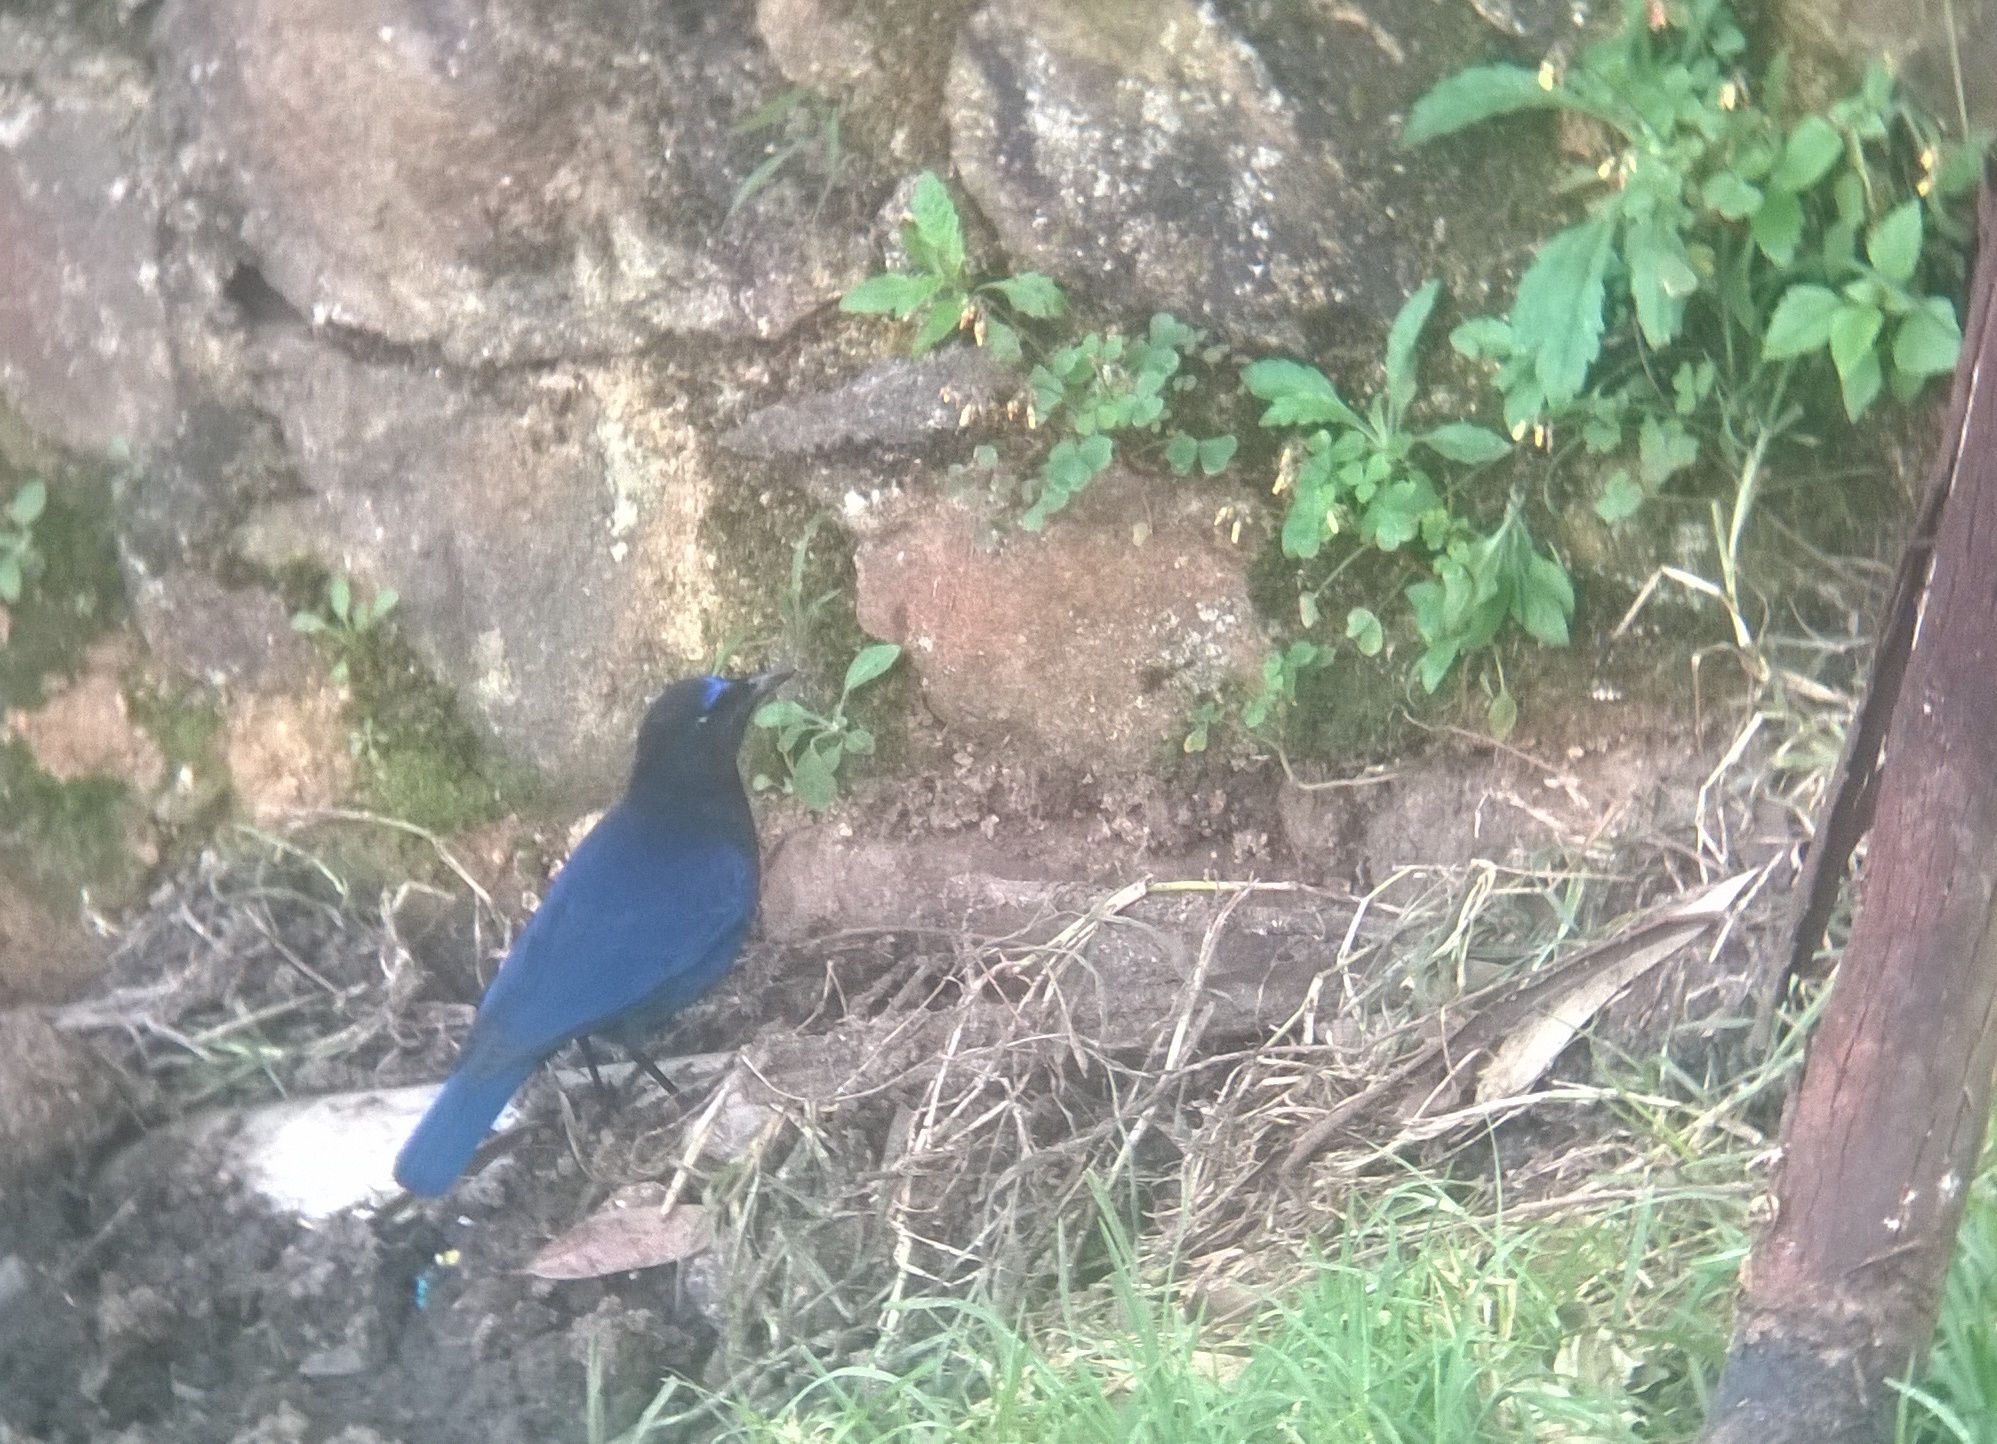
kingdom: Animalia
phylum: Chordata
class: Aves
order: Passeriformes
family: Muscicapidae
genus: Myophonus
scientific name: Myophonus horsfieldii
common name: Malabar whistling-thrush
